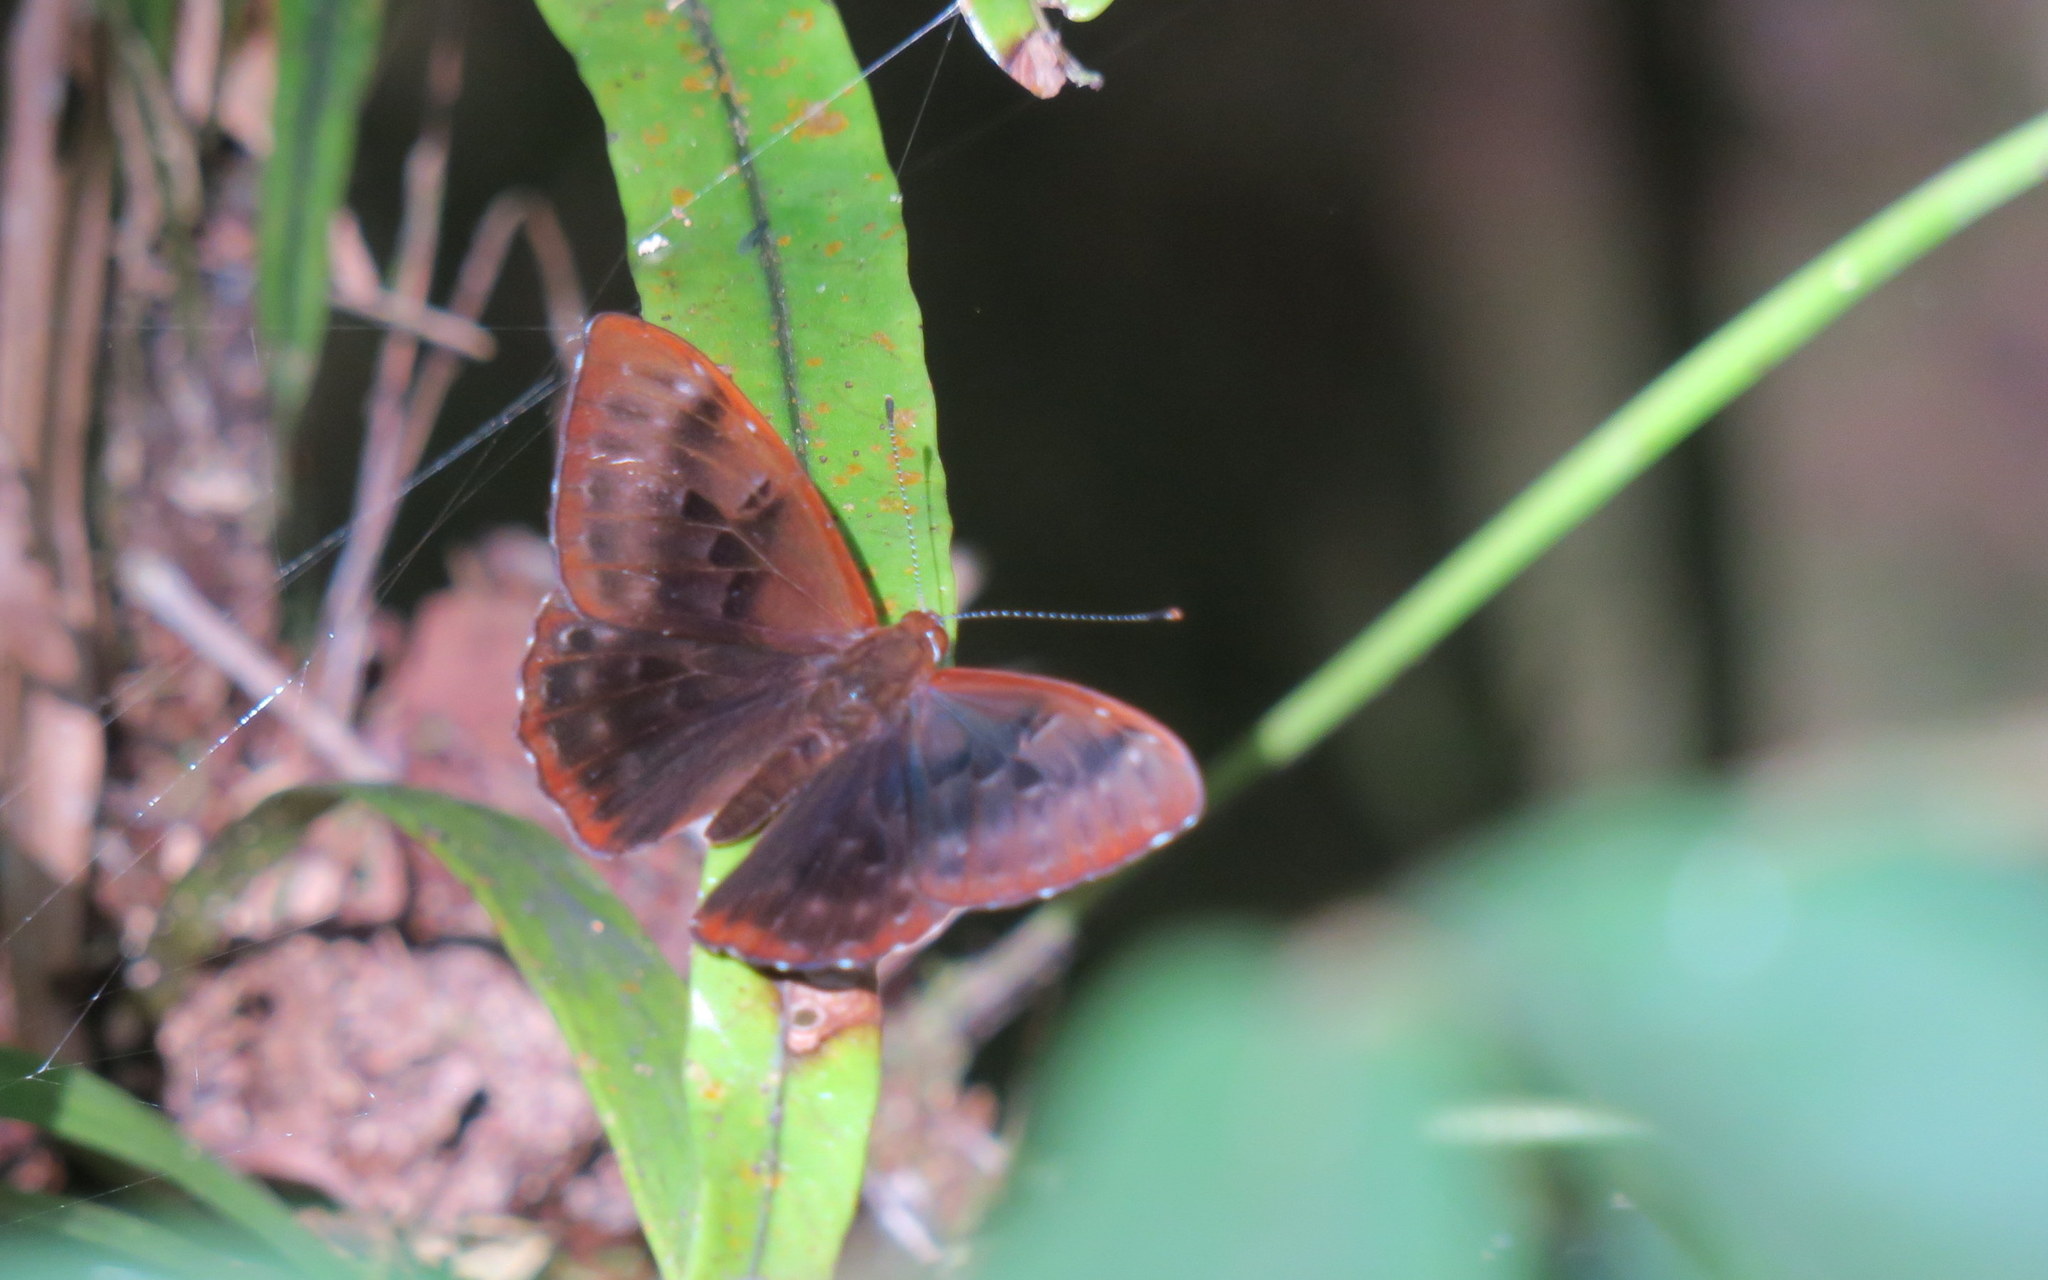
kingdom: Animalia
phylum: Arthropoda
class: Insecta
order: Lepidoptera
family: Erebidae
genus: Dysschema
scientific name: Dysschema
